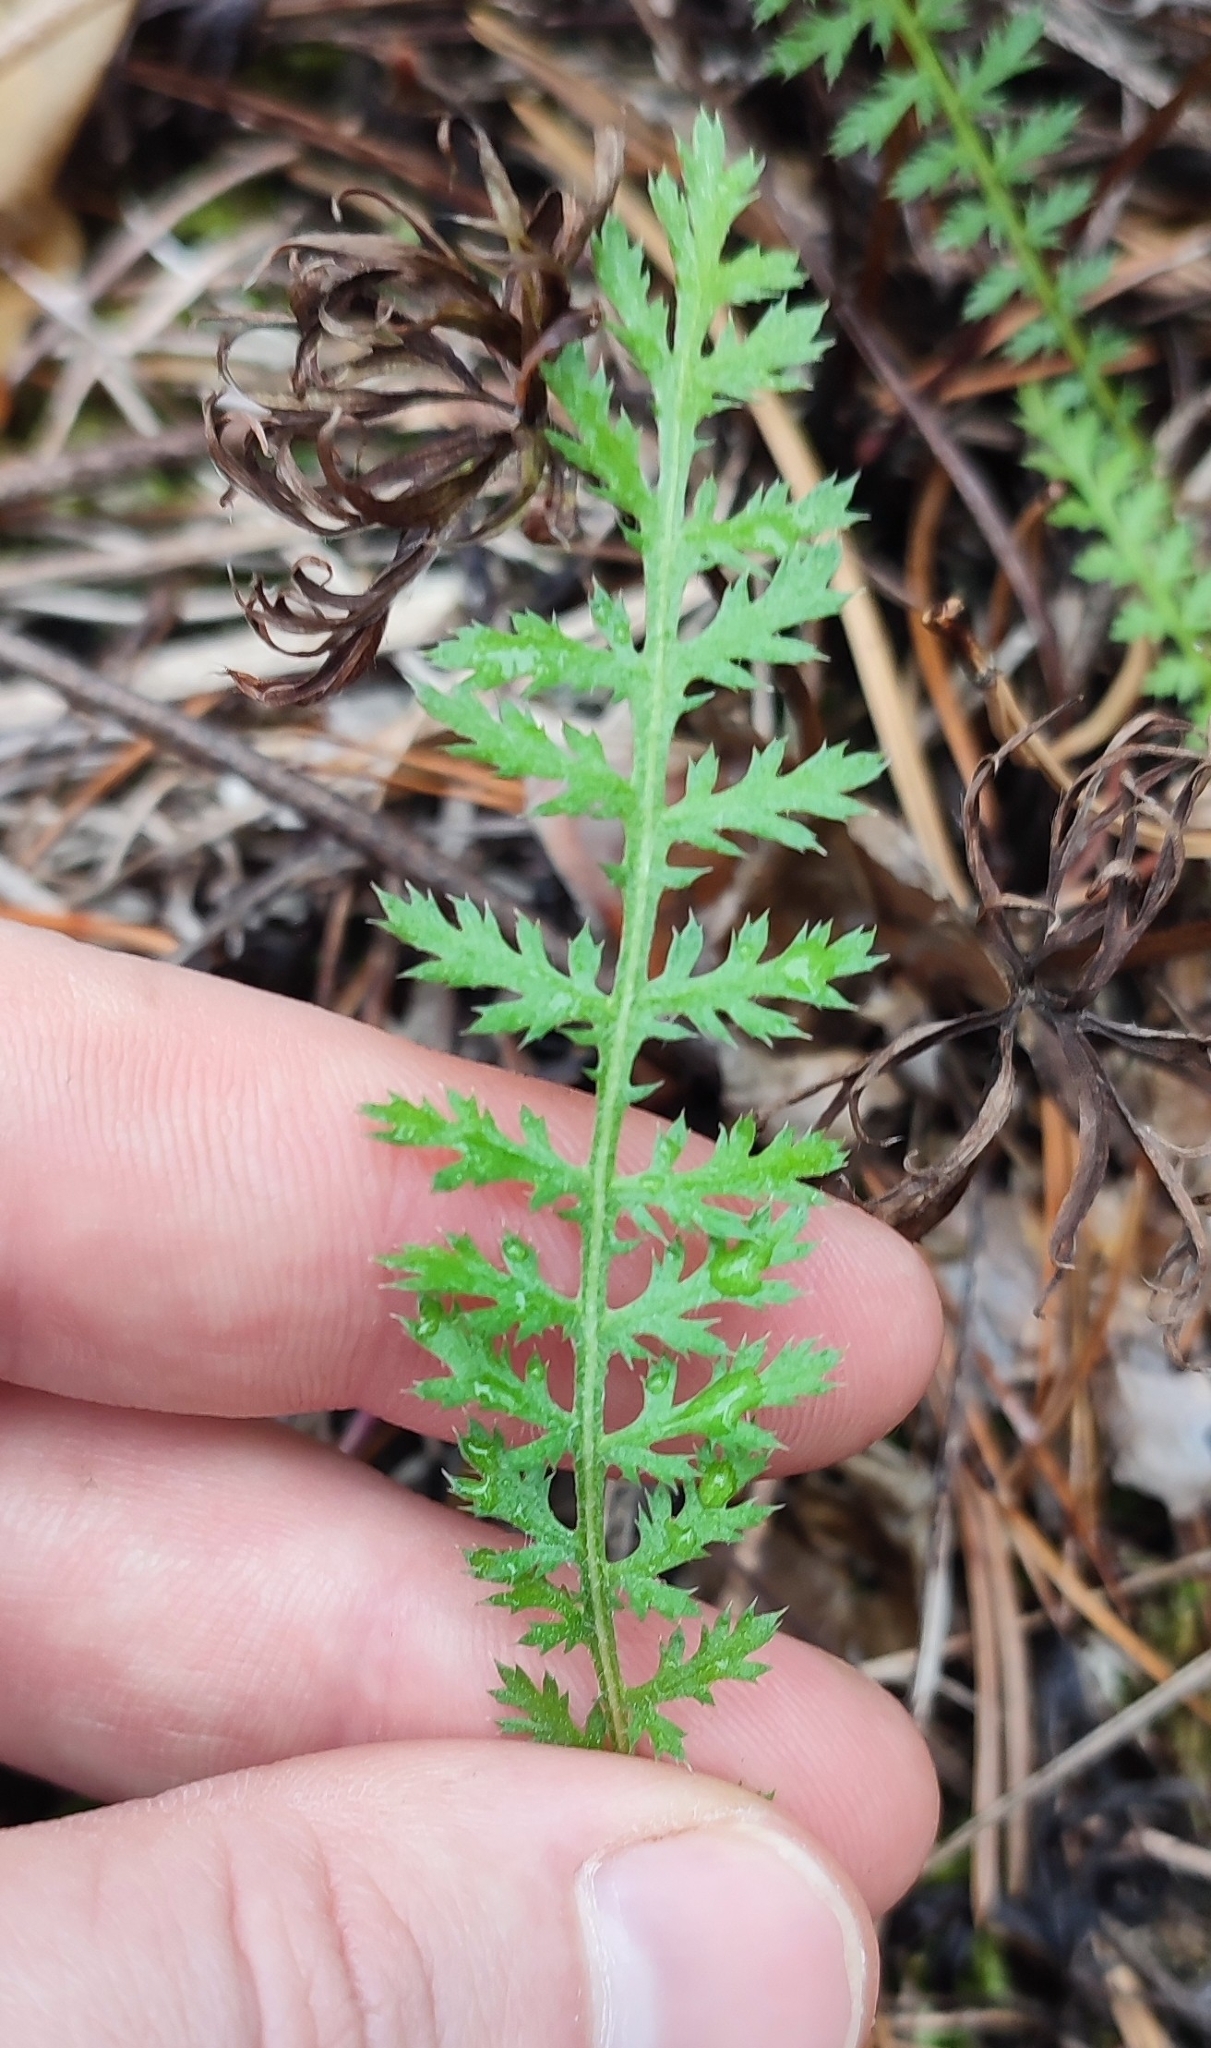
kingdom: Plantae
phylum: Tracheophyta
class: Magnoliopsida
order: Asterales
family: Asteraceae
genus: Achillea
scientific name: Achillea
